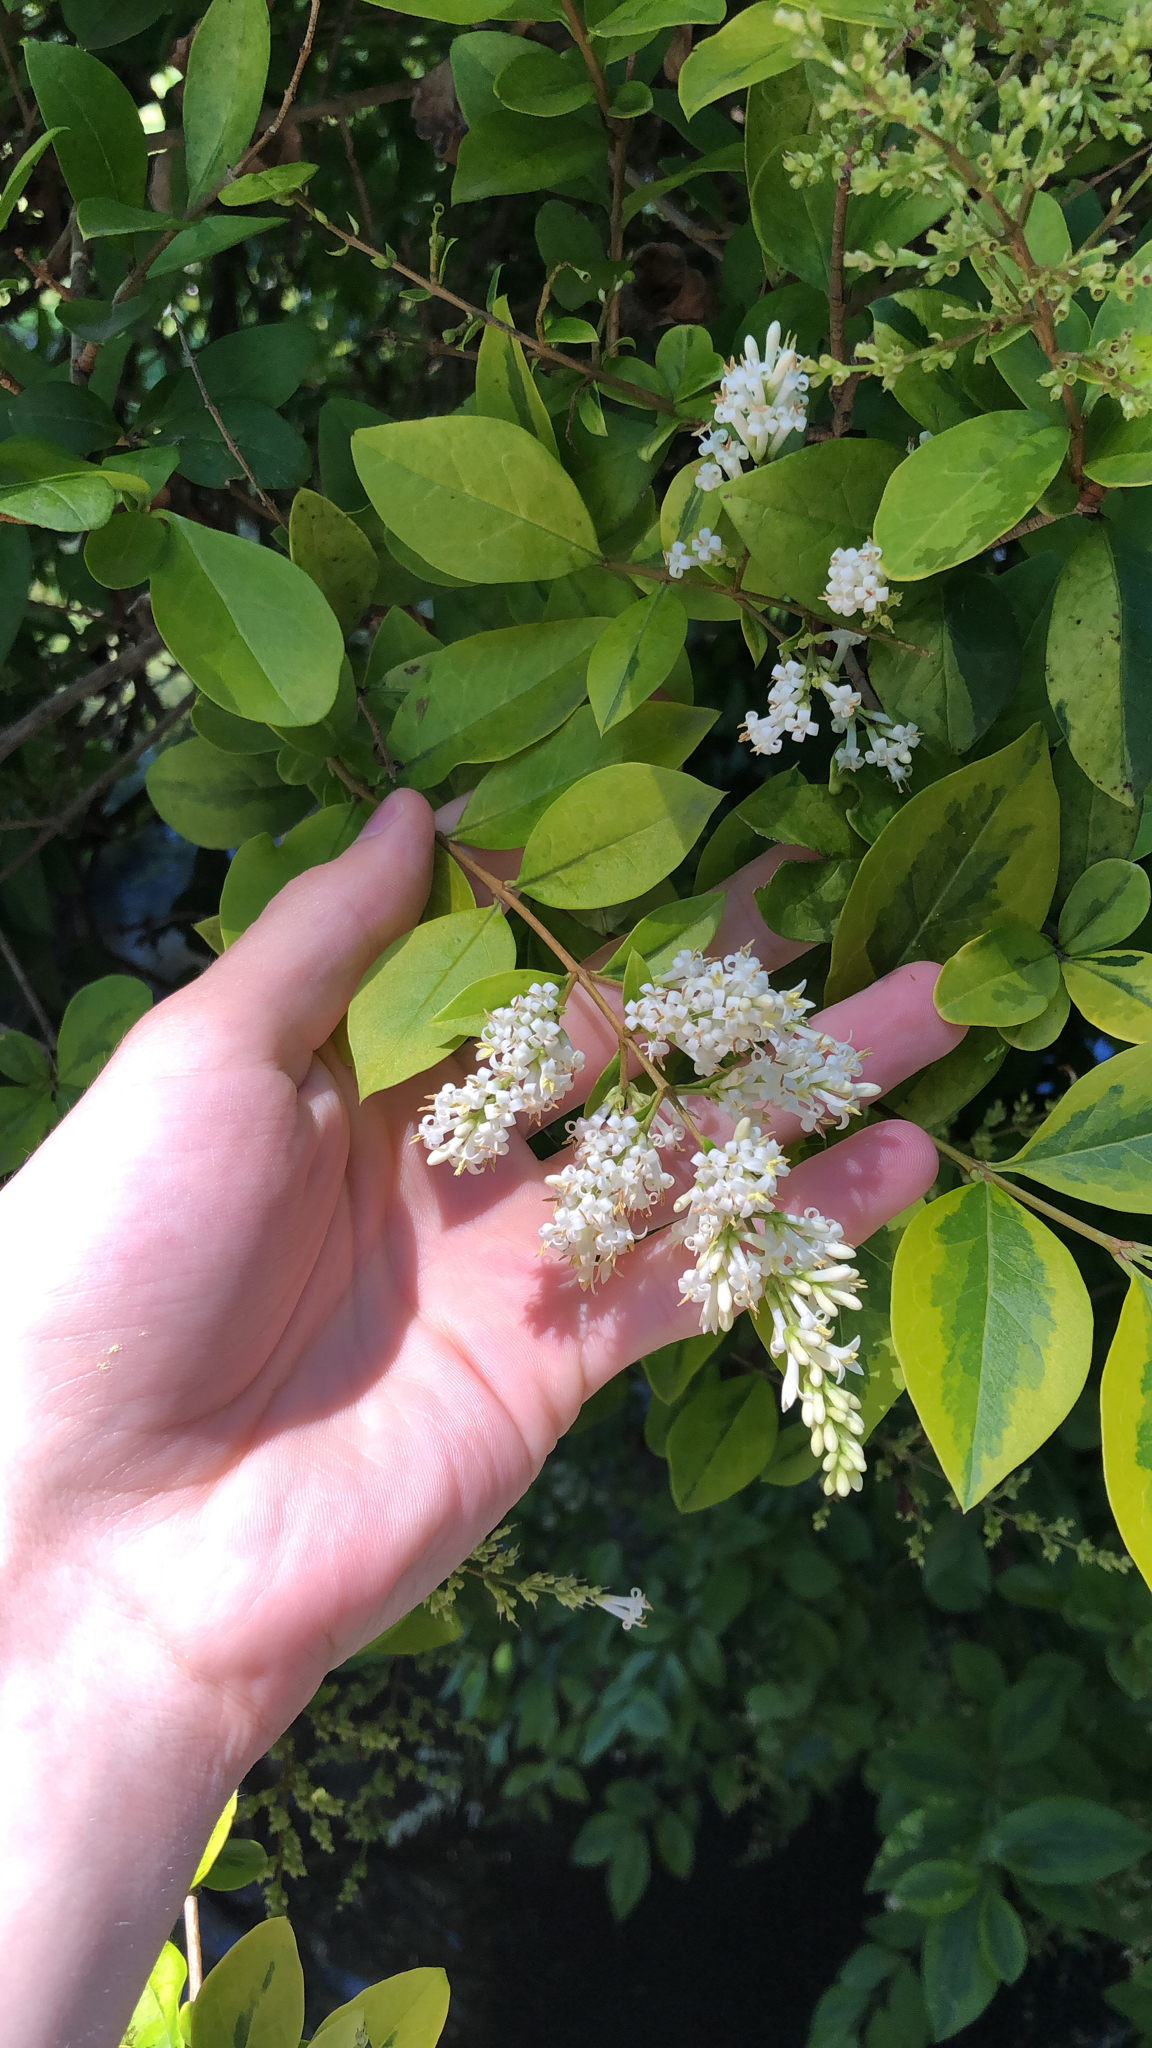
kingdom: Plantae
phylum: Tracheophyta
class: Magnoliopsida
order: Lamiales
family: Oleaceae
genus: Ligustrum
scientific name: Ligustrum sinense
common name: Chinese privet
